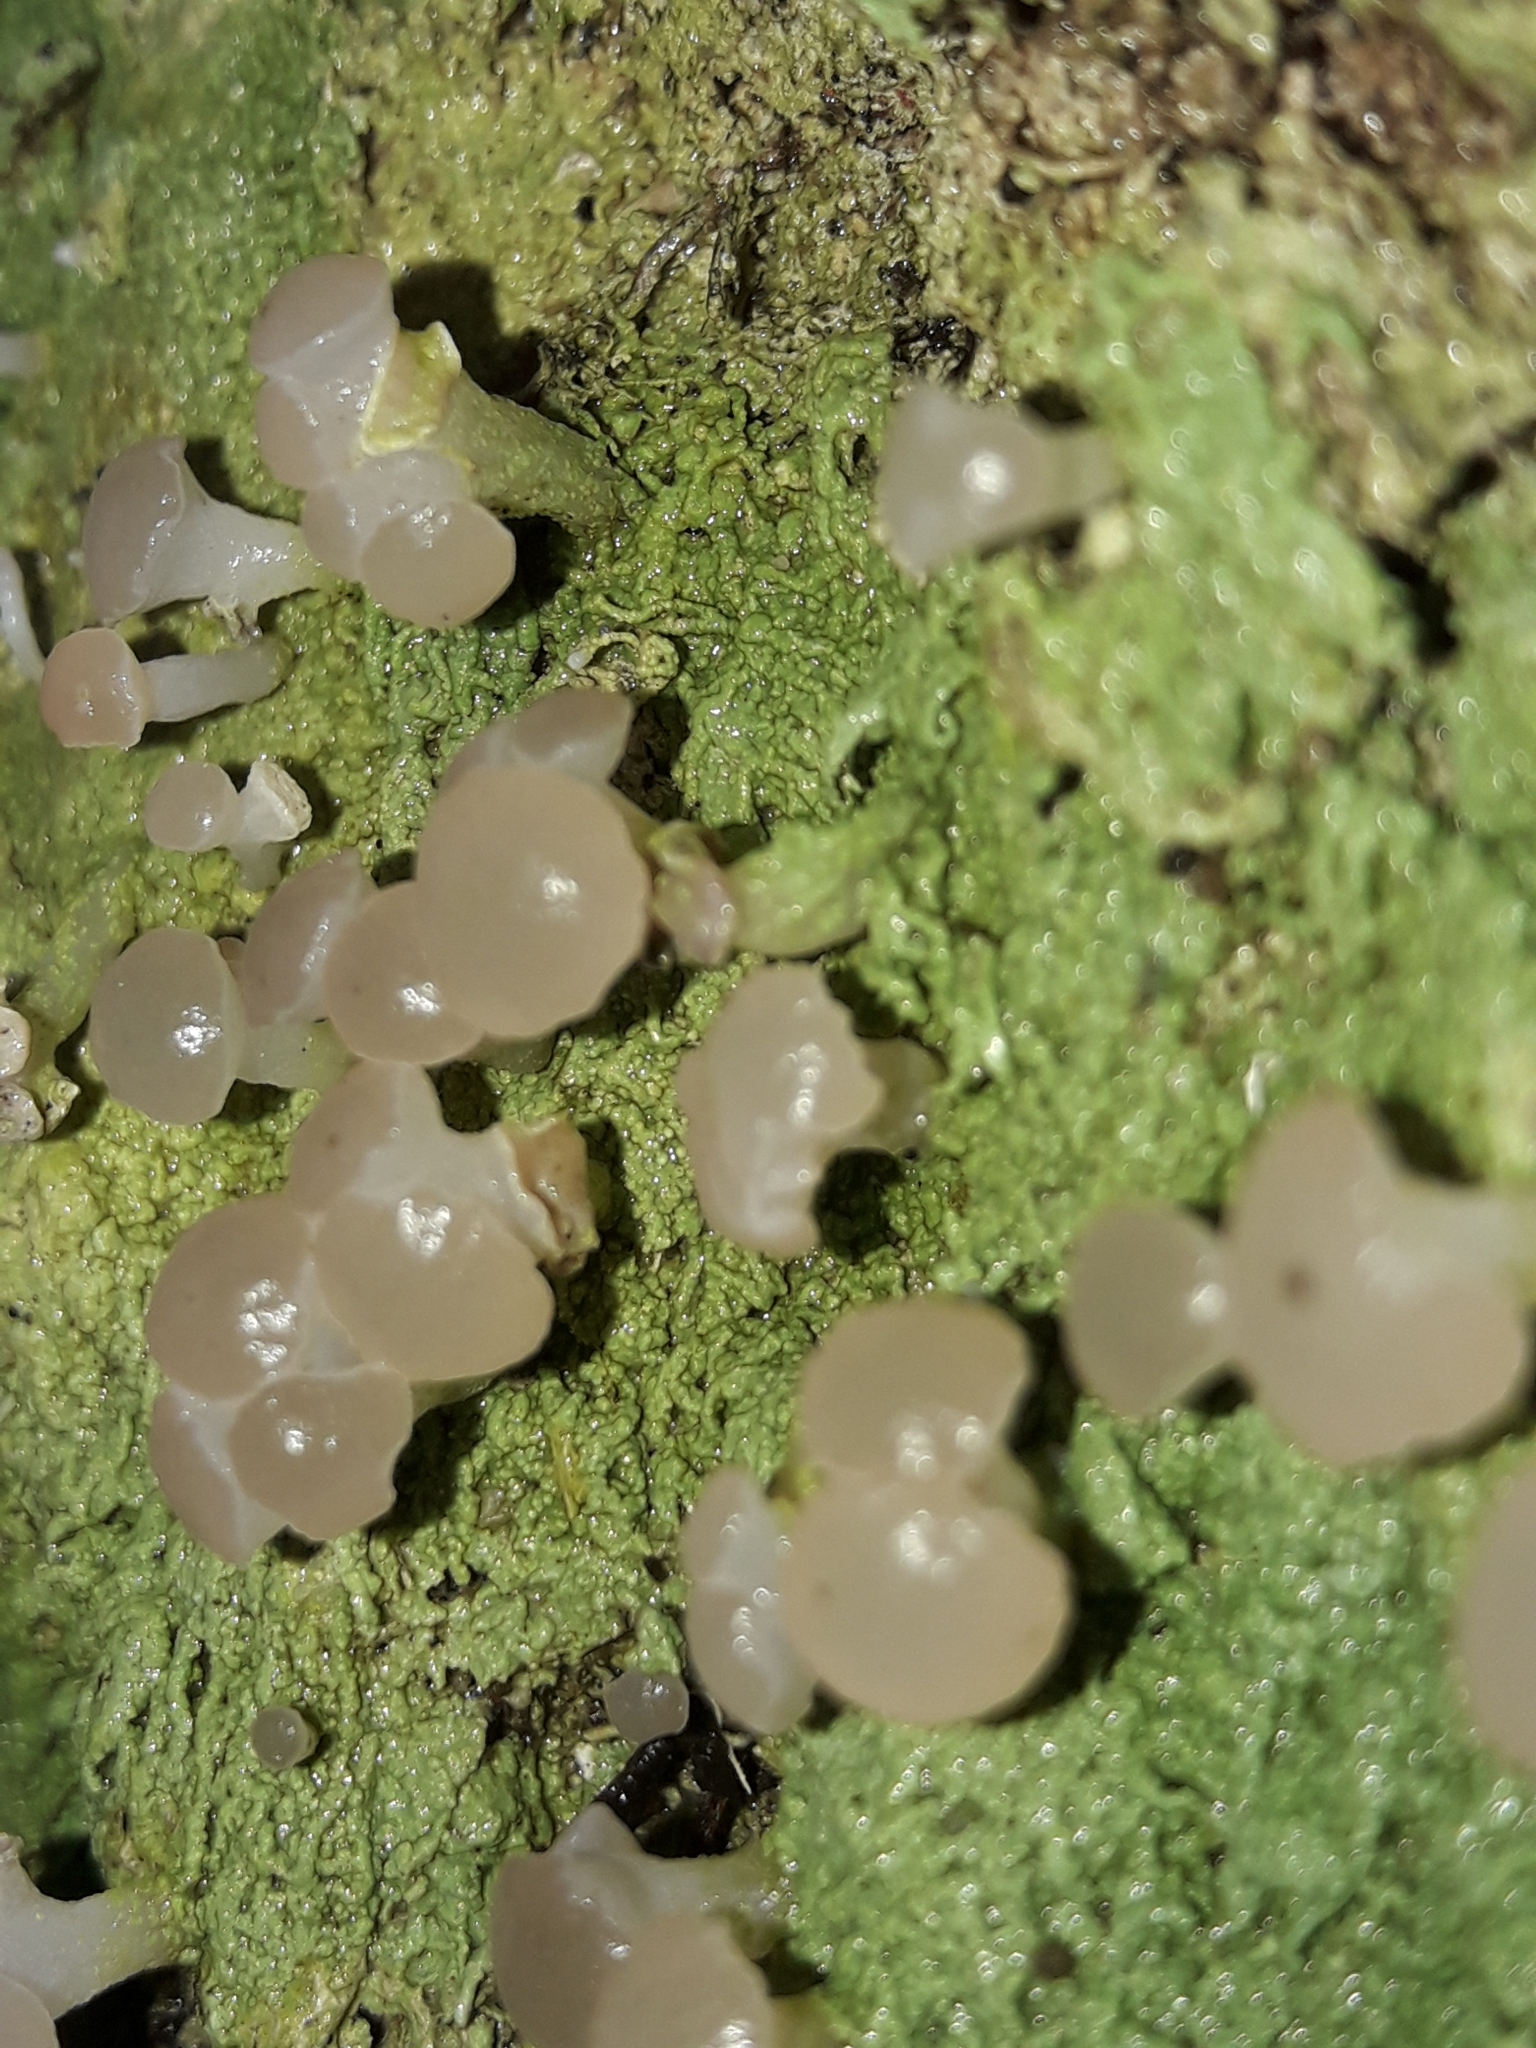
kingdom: Fungi
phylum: Ascomycota
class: Lecanoromycetes
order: Baeomycetales
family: Baeomycetaceae
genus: Baeomyces
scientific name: Baeomyces heteromorphus
